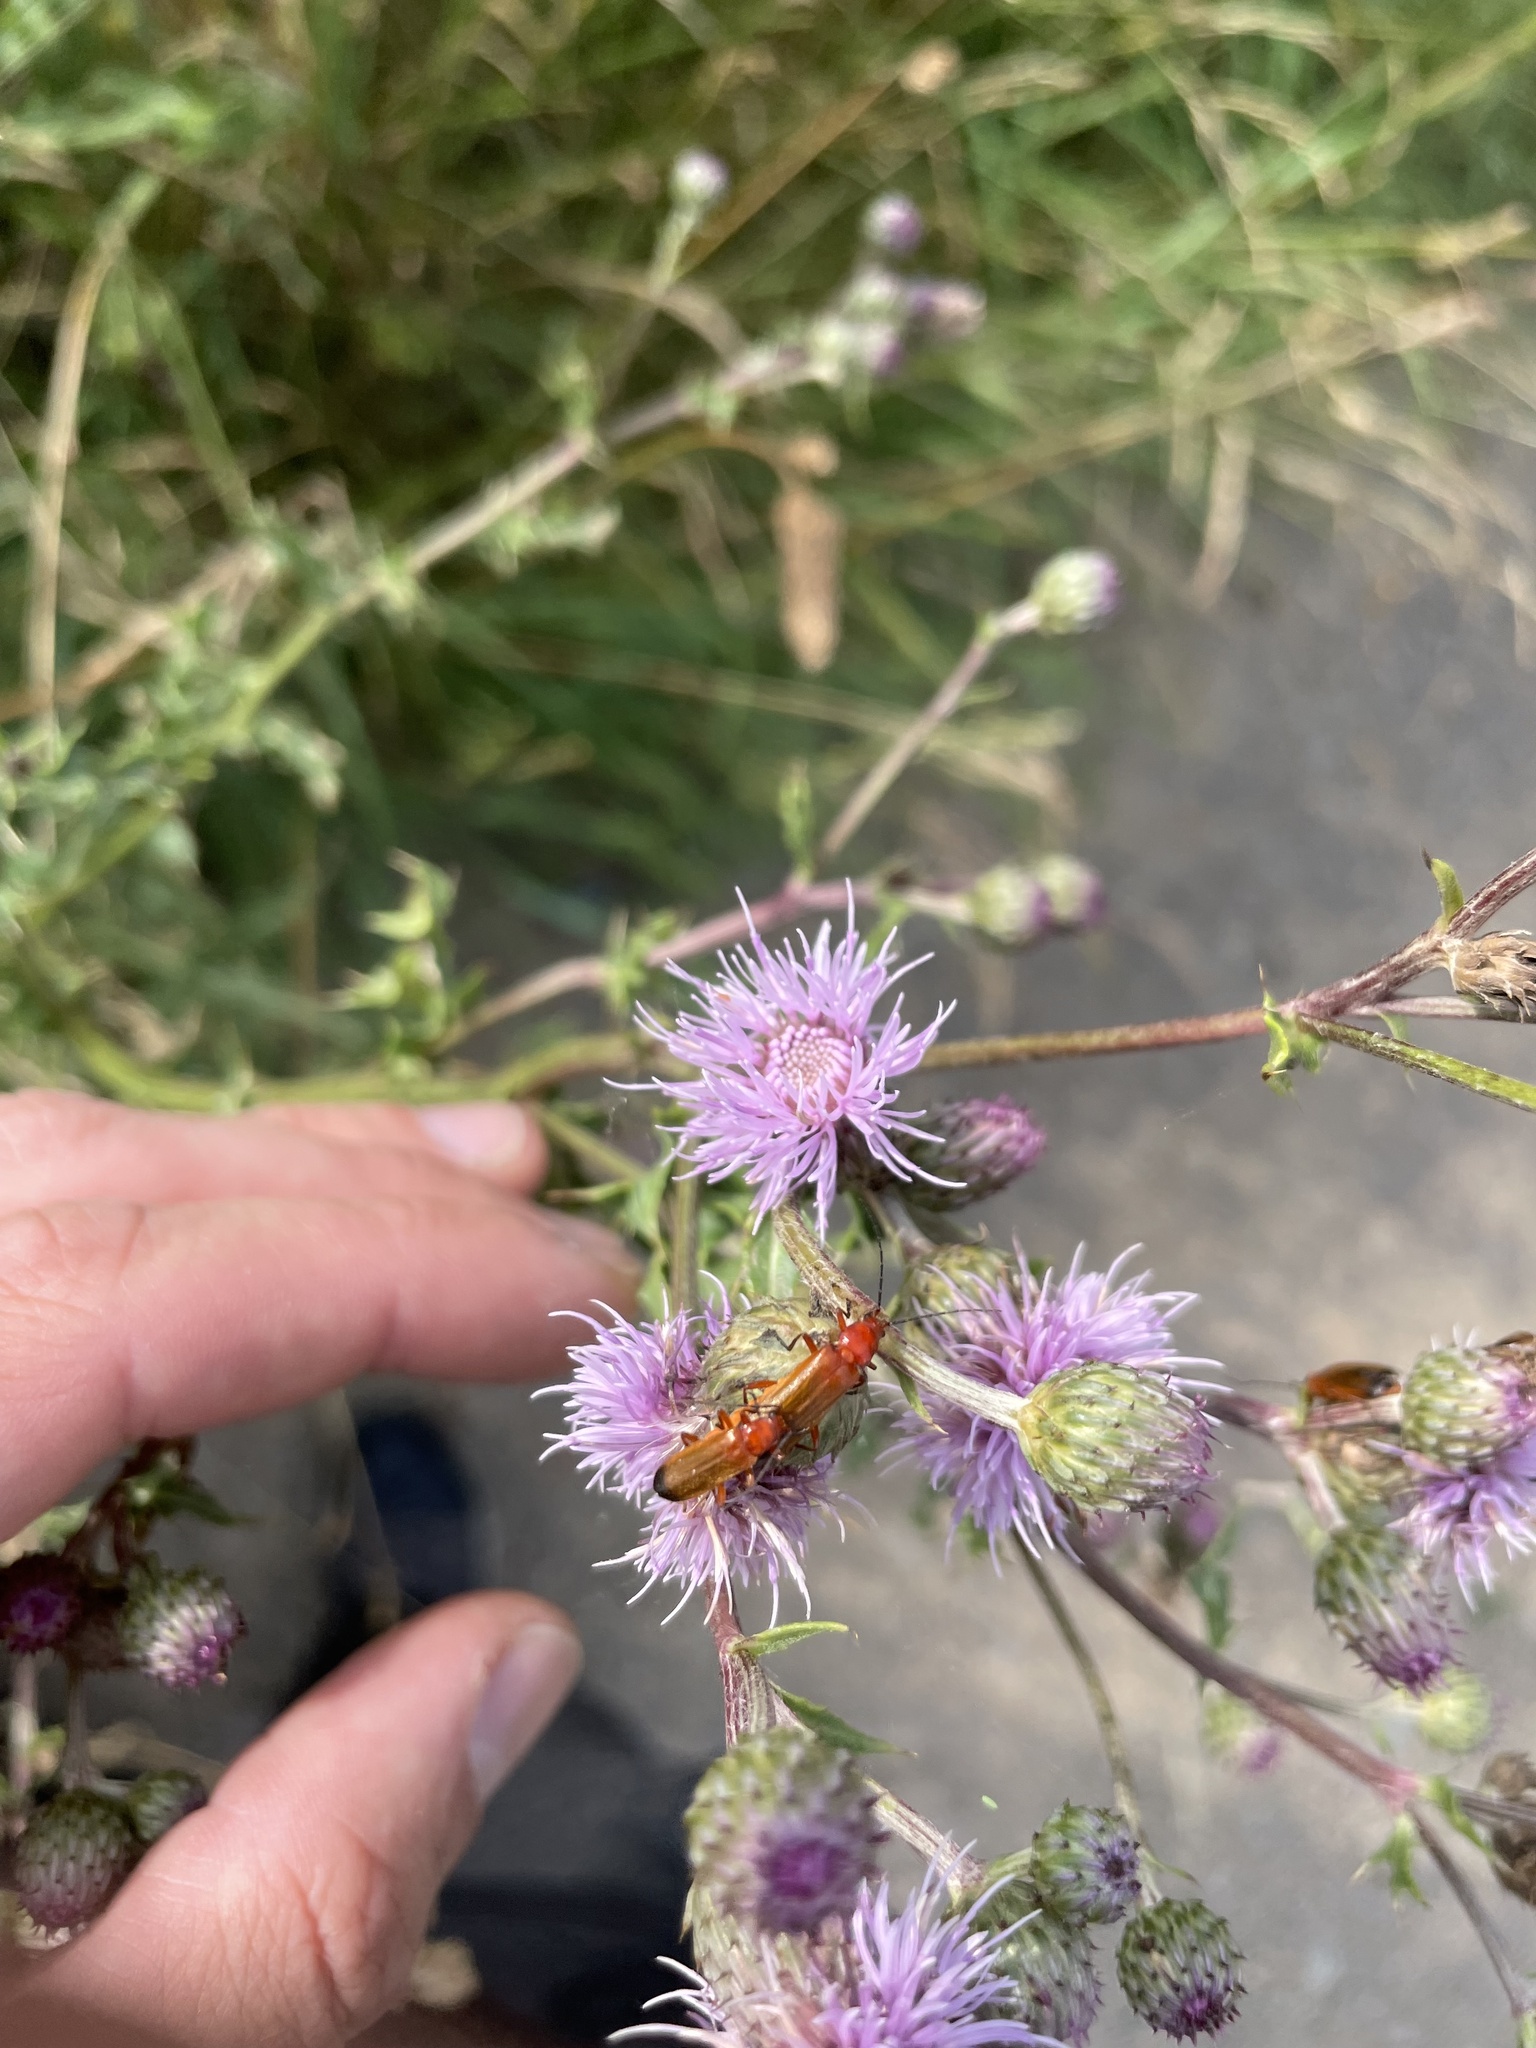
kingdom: Animalia
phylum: Arthropoda
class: Insecta
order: Coleoptera
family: Cantharidae
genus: Rhagonycha
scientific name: Rhagonycha fulva
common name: Common red soldier beetle
